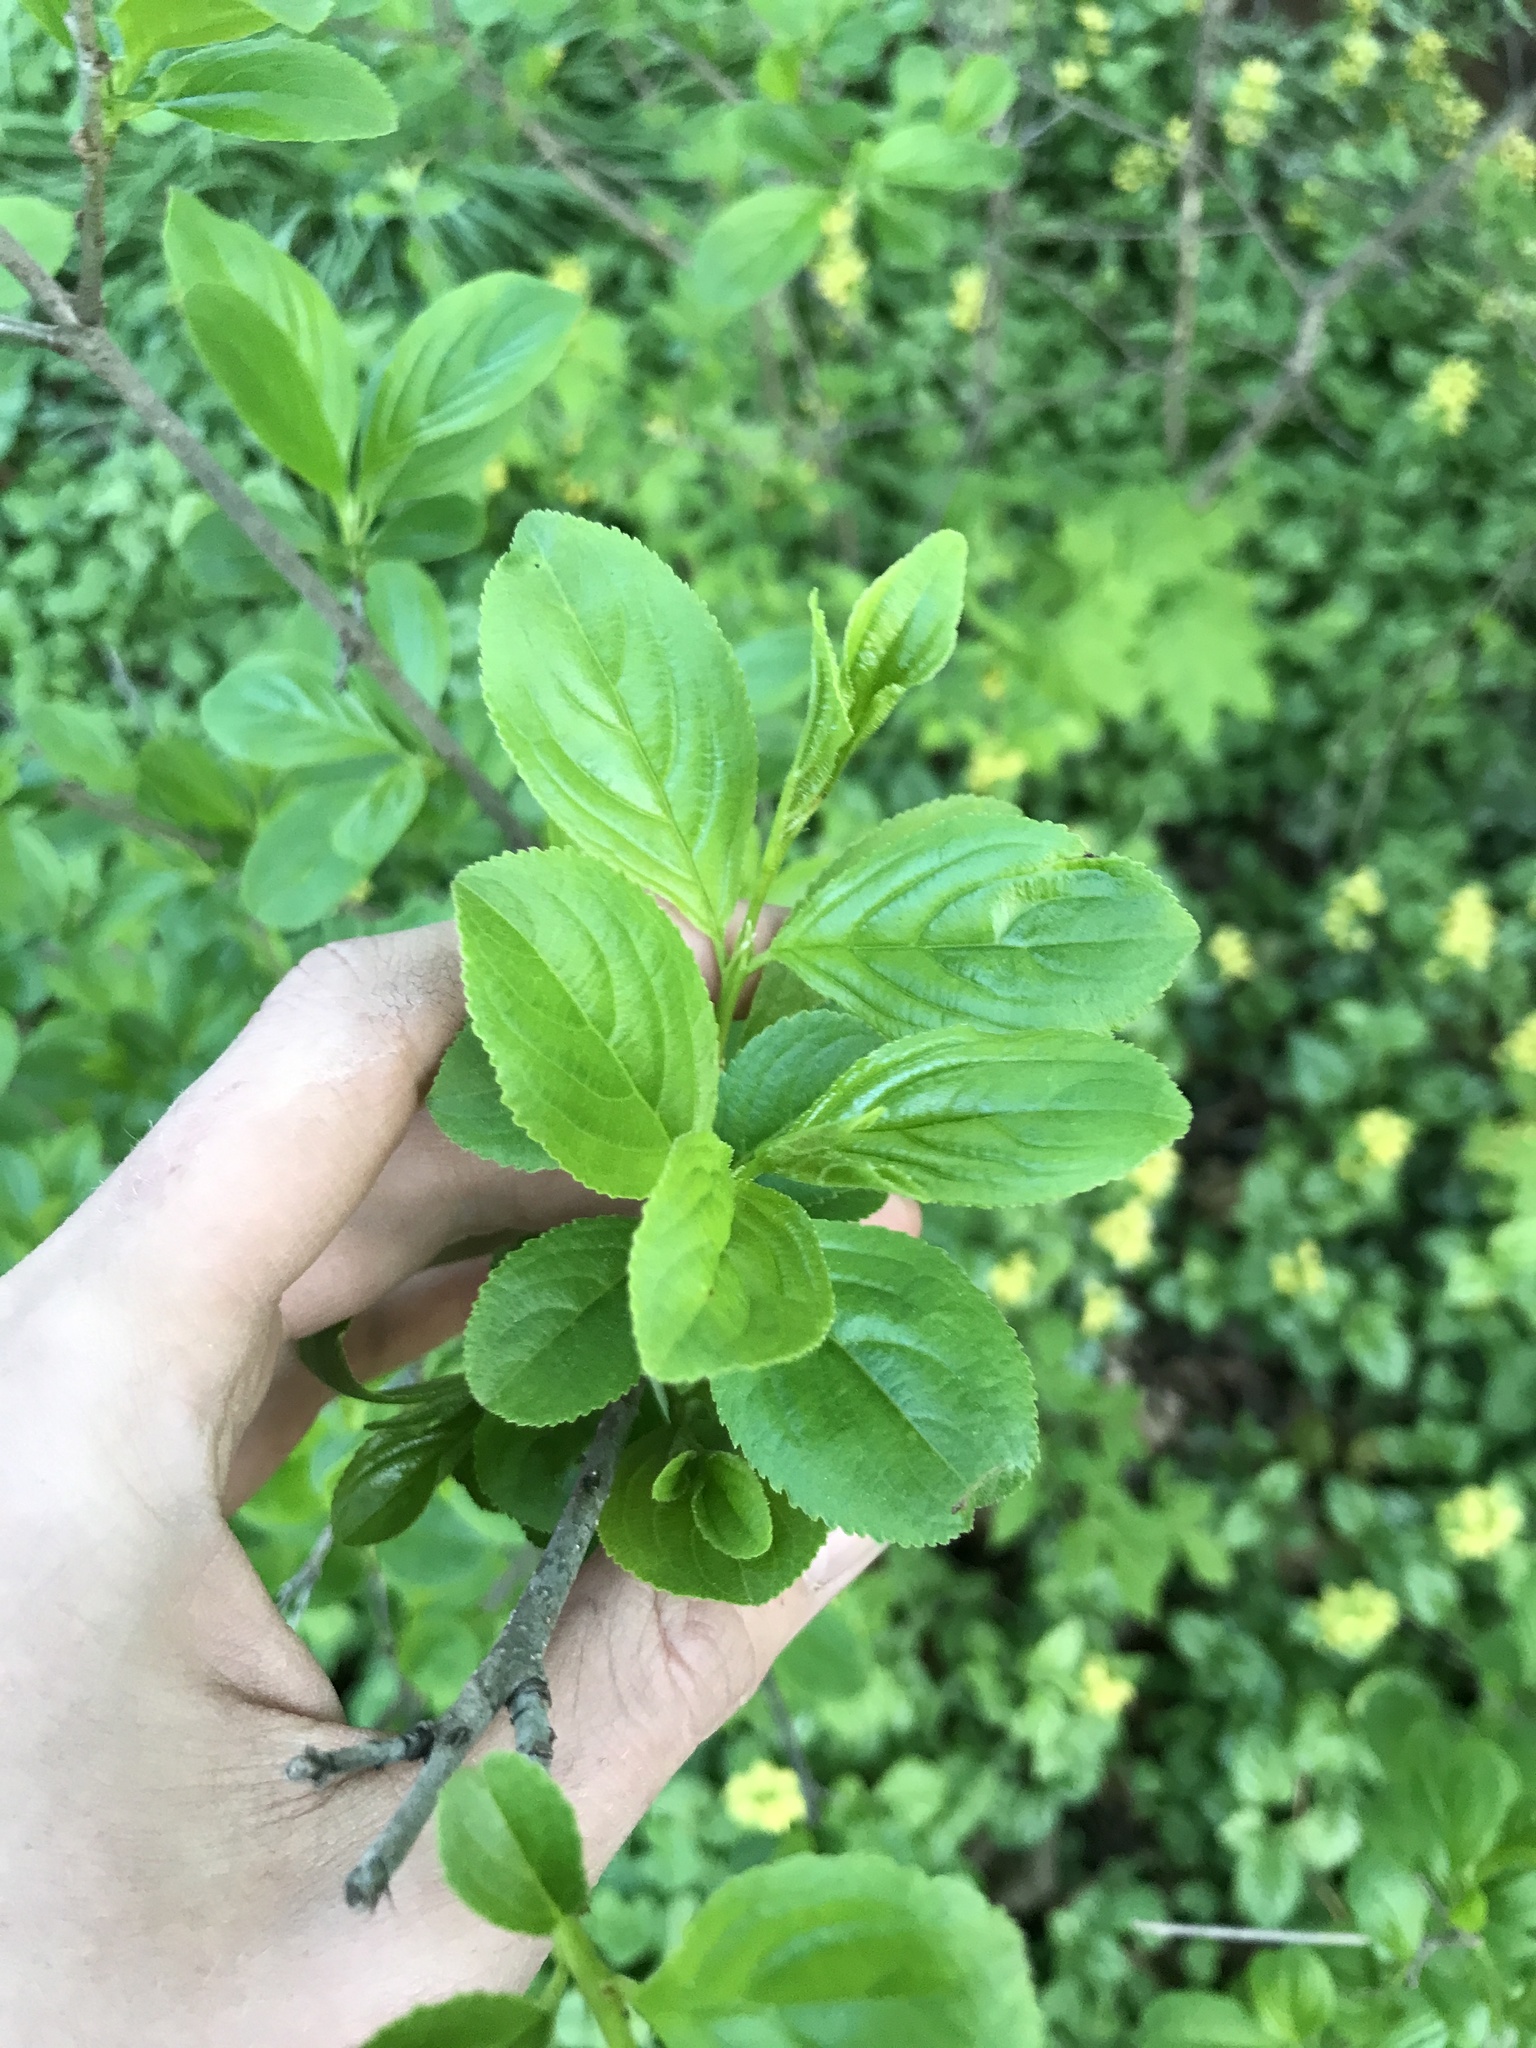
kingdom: Plantae
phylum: Tracheophyta
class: Magnoliopsida
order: Rosales
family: Rhamnaceae
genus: Rhamnus
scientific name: Rhamnus cathartica
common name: Common buckthorn
